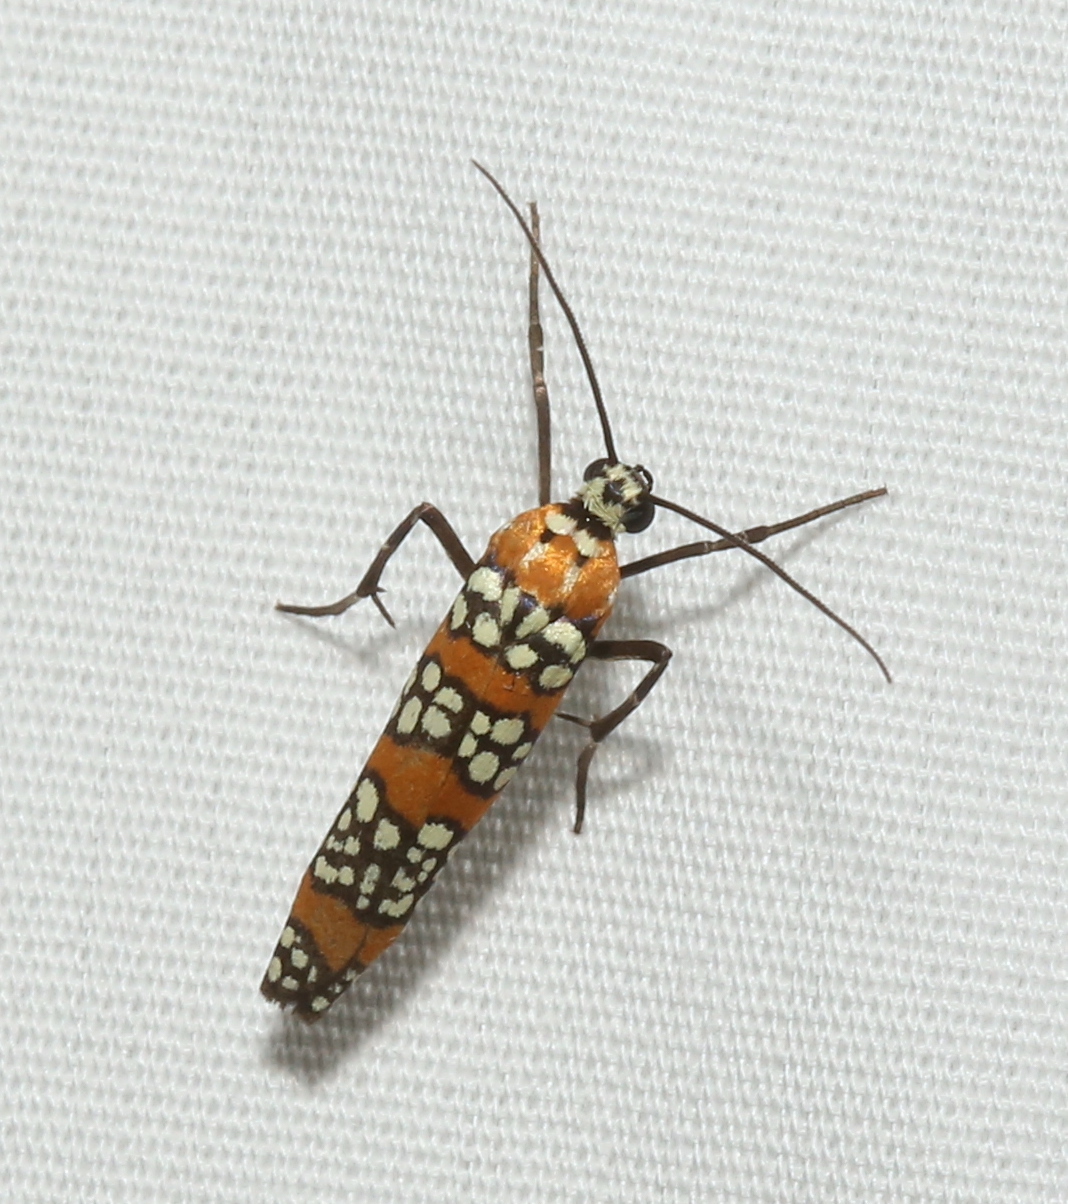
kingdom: Animalia
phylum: Arthropoda
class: Insecta
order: Lepidoptera
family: Attevidae
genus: Atteva
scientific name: Atteva punctella
